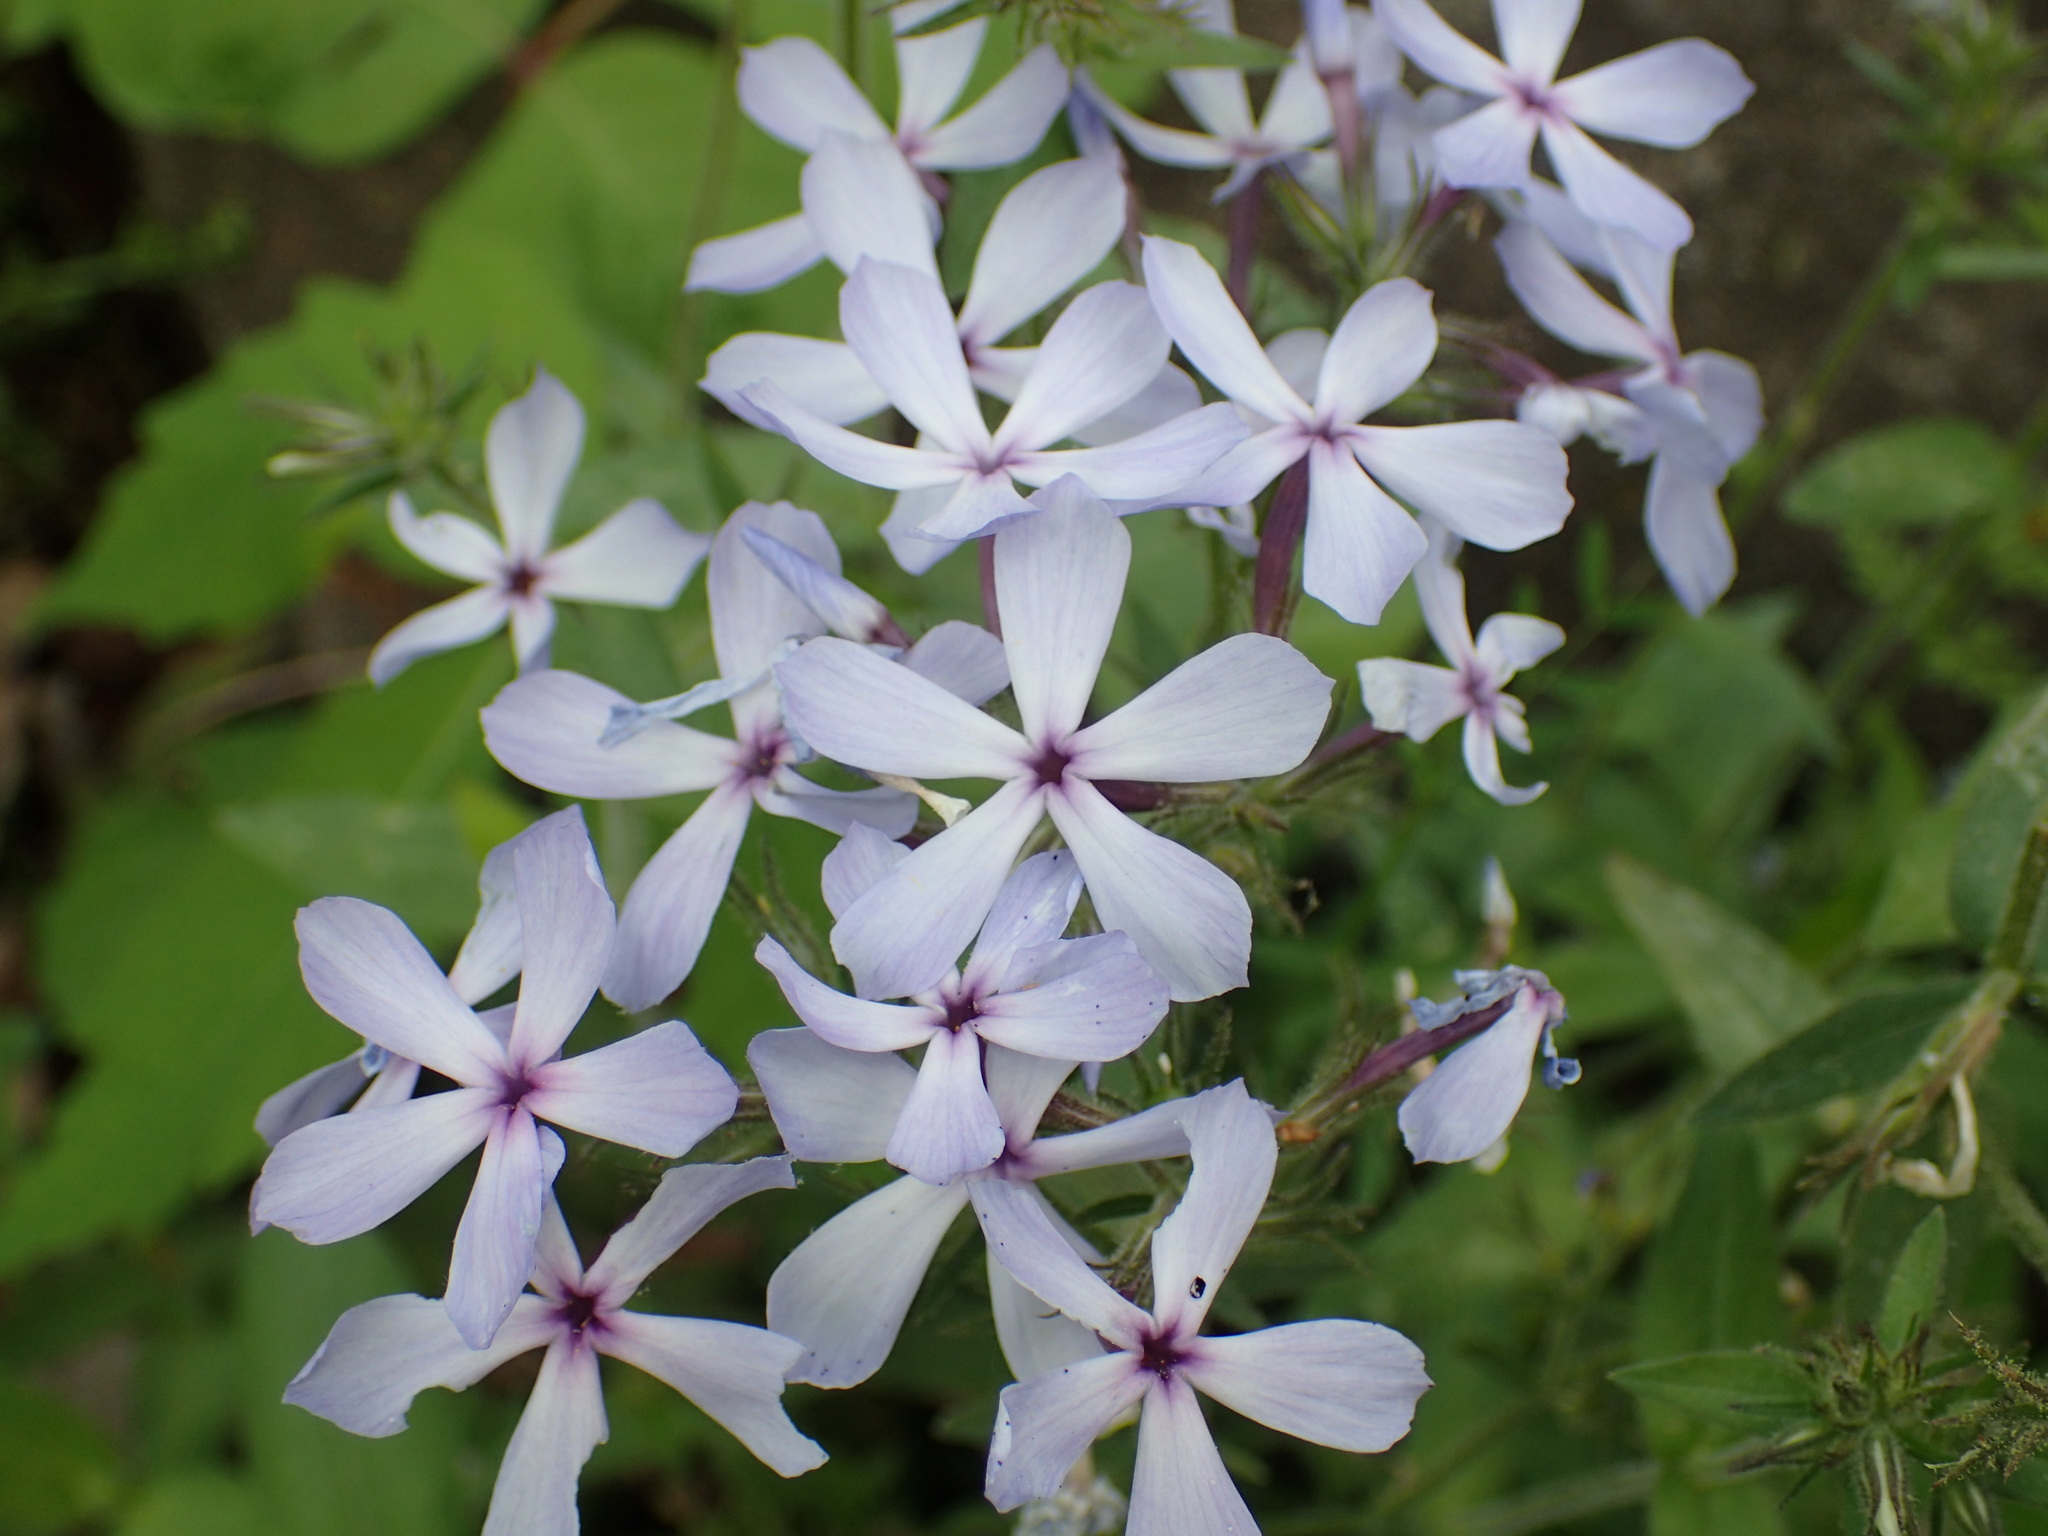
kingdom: Plantae
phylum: Tracheophyta
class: Magnoliopsida
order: Ericales
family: Polemoniaceae
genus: Phlox
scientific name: Phlox divaricata
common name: Blue phlox
